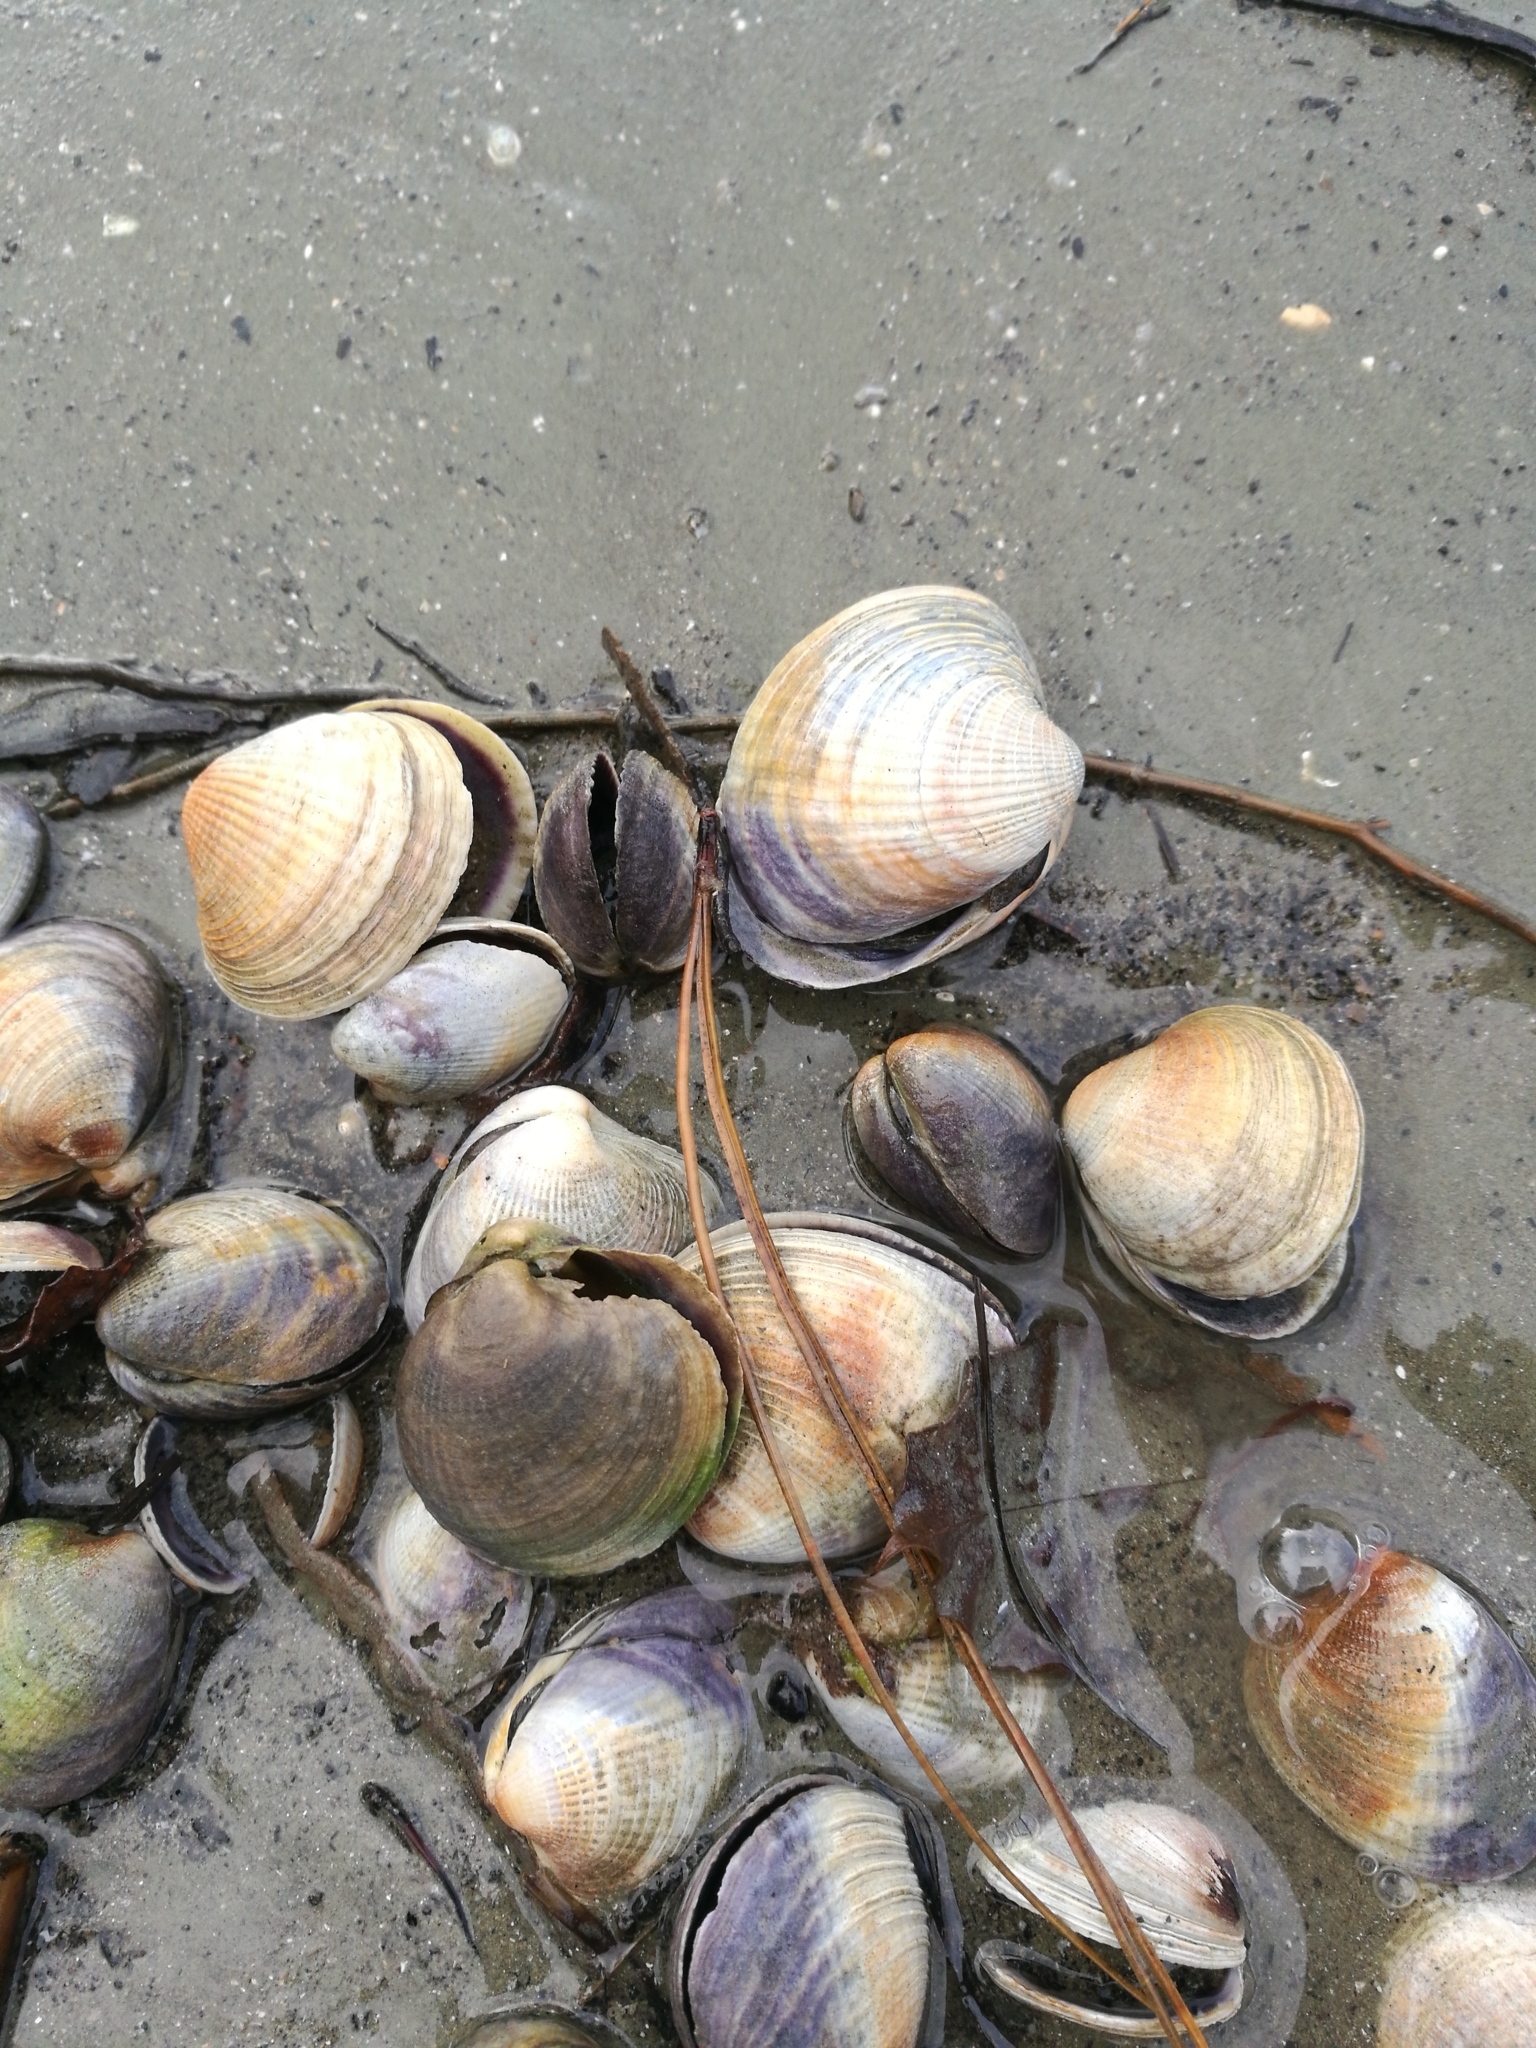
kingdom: Animalia
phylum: Mollusca
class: Bivalvia
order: Venerida
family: Veneridae
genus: Austrovenus
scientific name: Austrovenus stutchburyi
